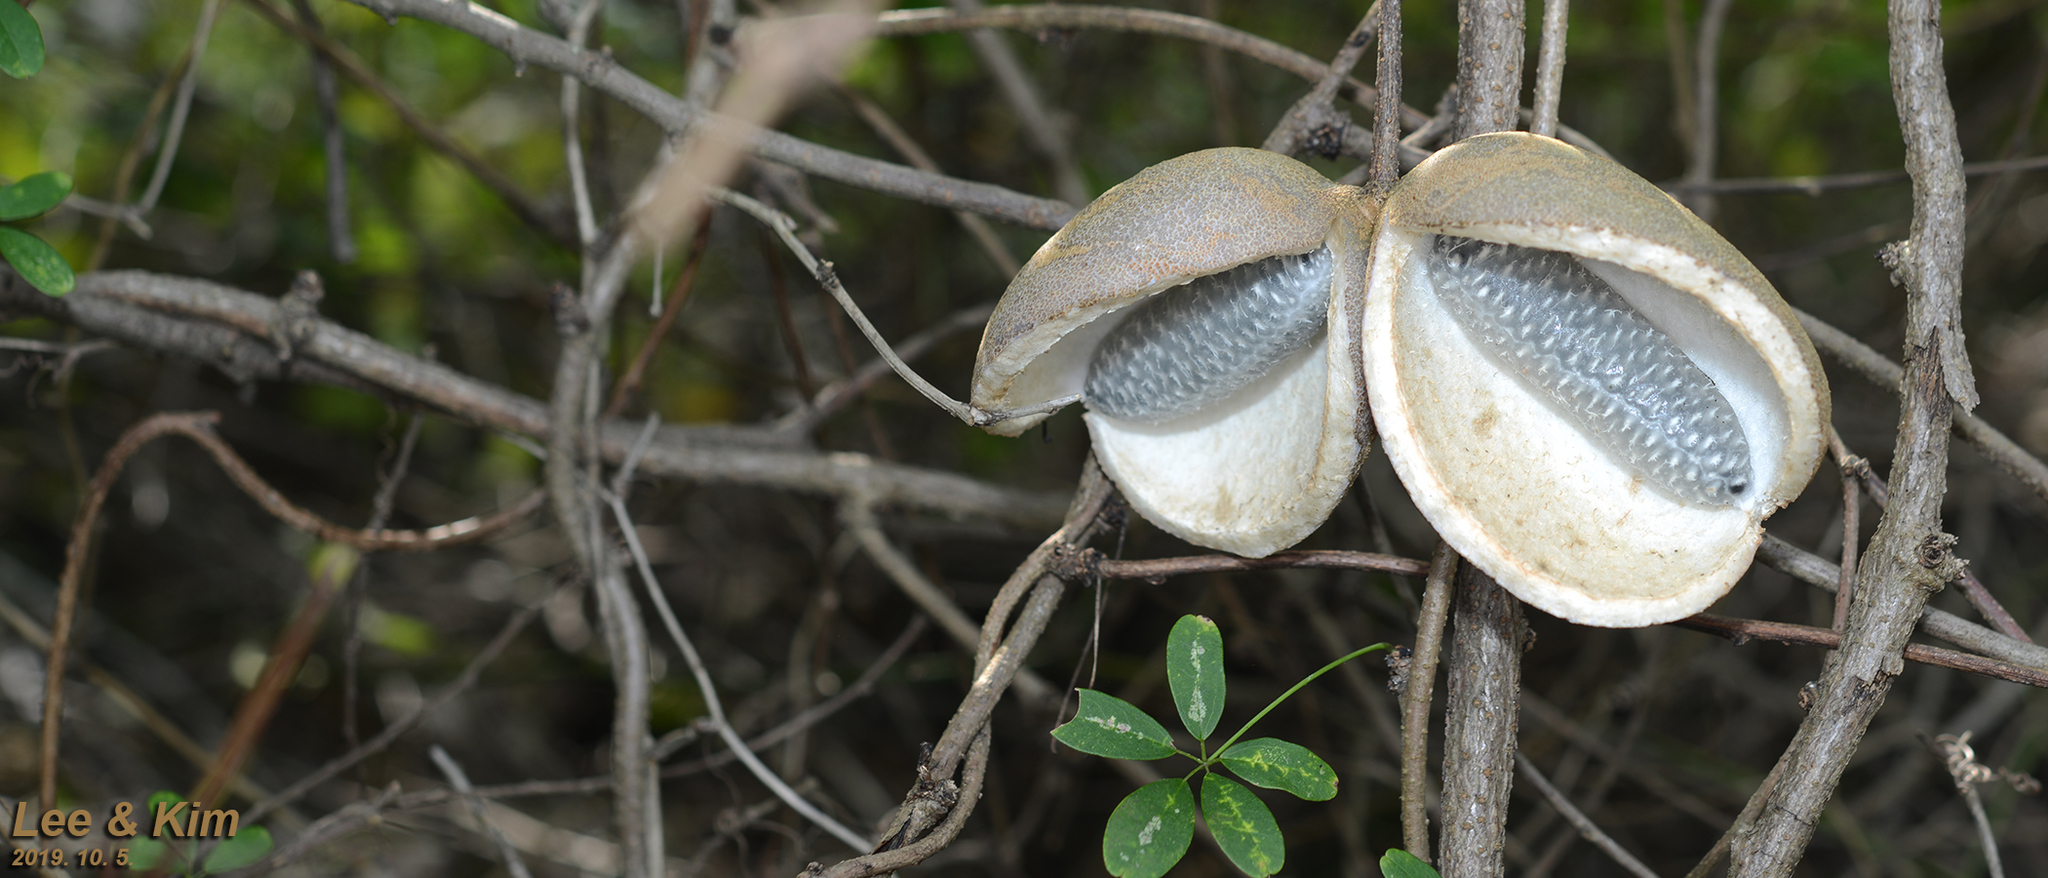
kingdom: Plantae
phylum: Tracheophyta
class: Magnoliopsida
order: Ranunculales
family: Lardizabalaceae
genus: Akebia
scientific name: Akebia quinata
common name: Five-leaf akebia
